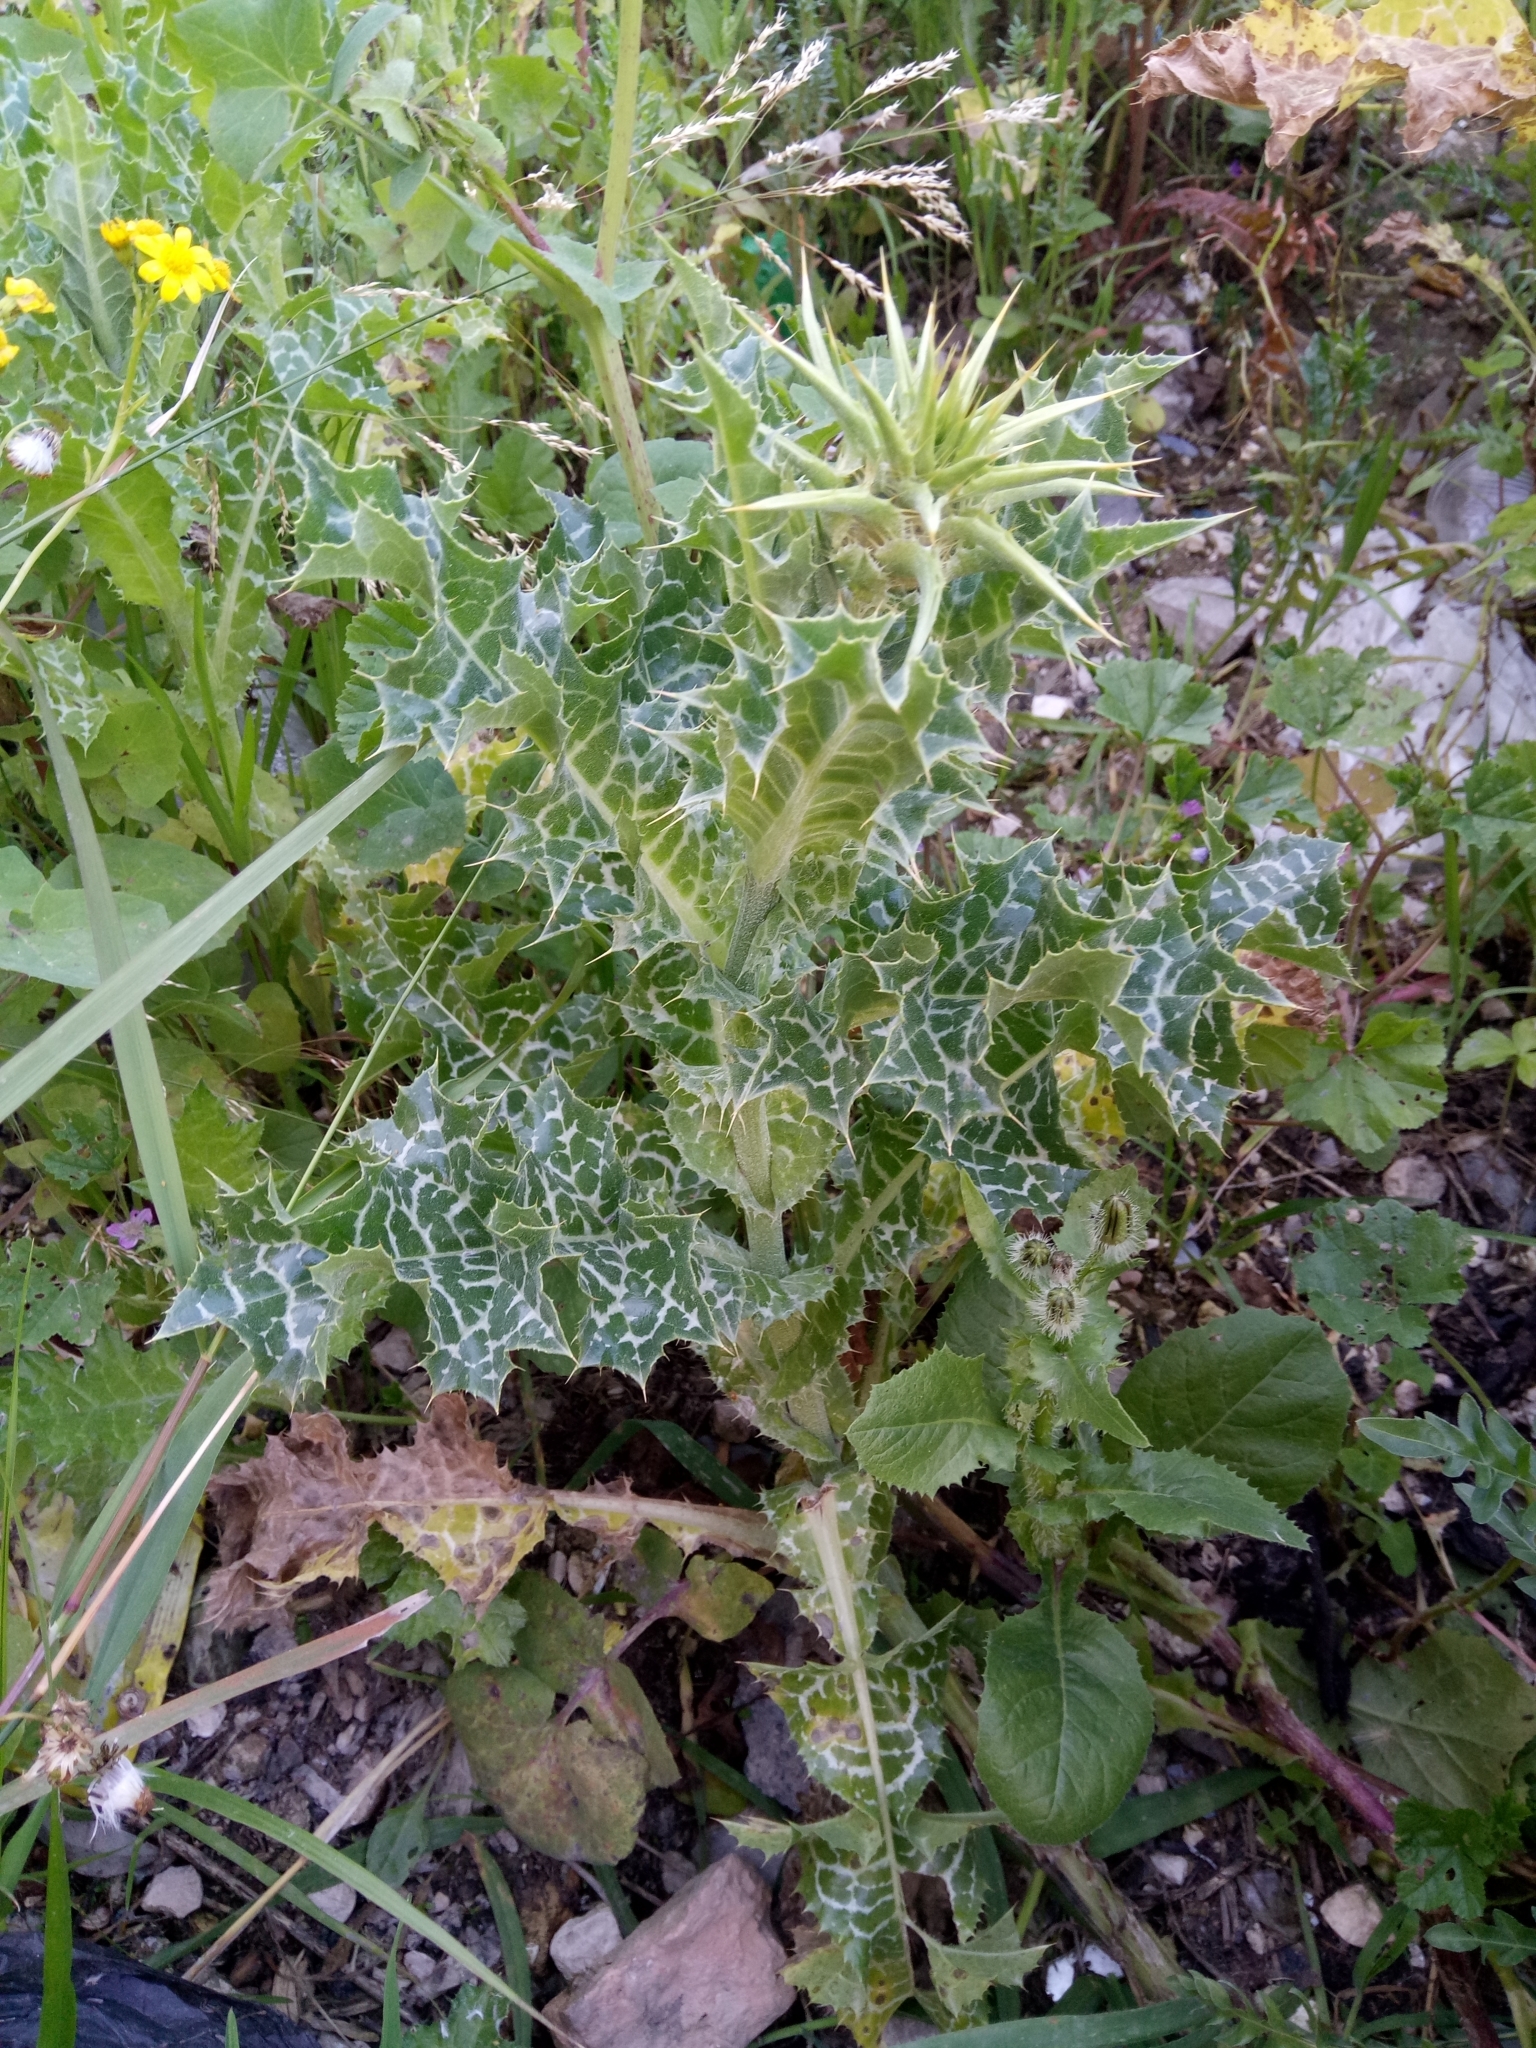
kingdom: Plantae
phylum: Tracheophyta
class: Magnoliopsida
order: Asterales
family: Asteraceae
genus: Silybum
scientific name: Silybum marianum
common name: Milk thistle
